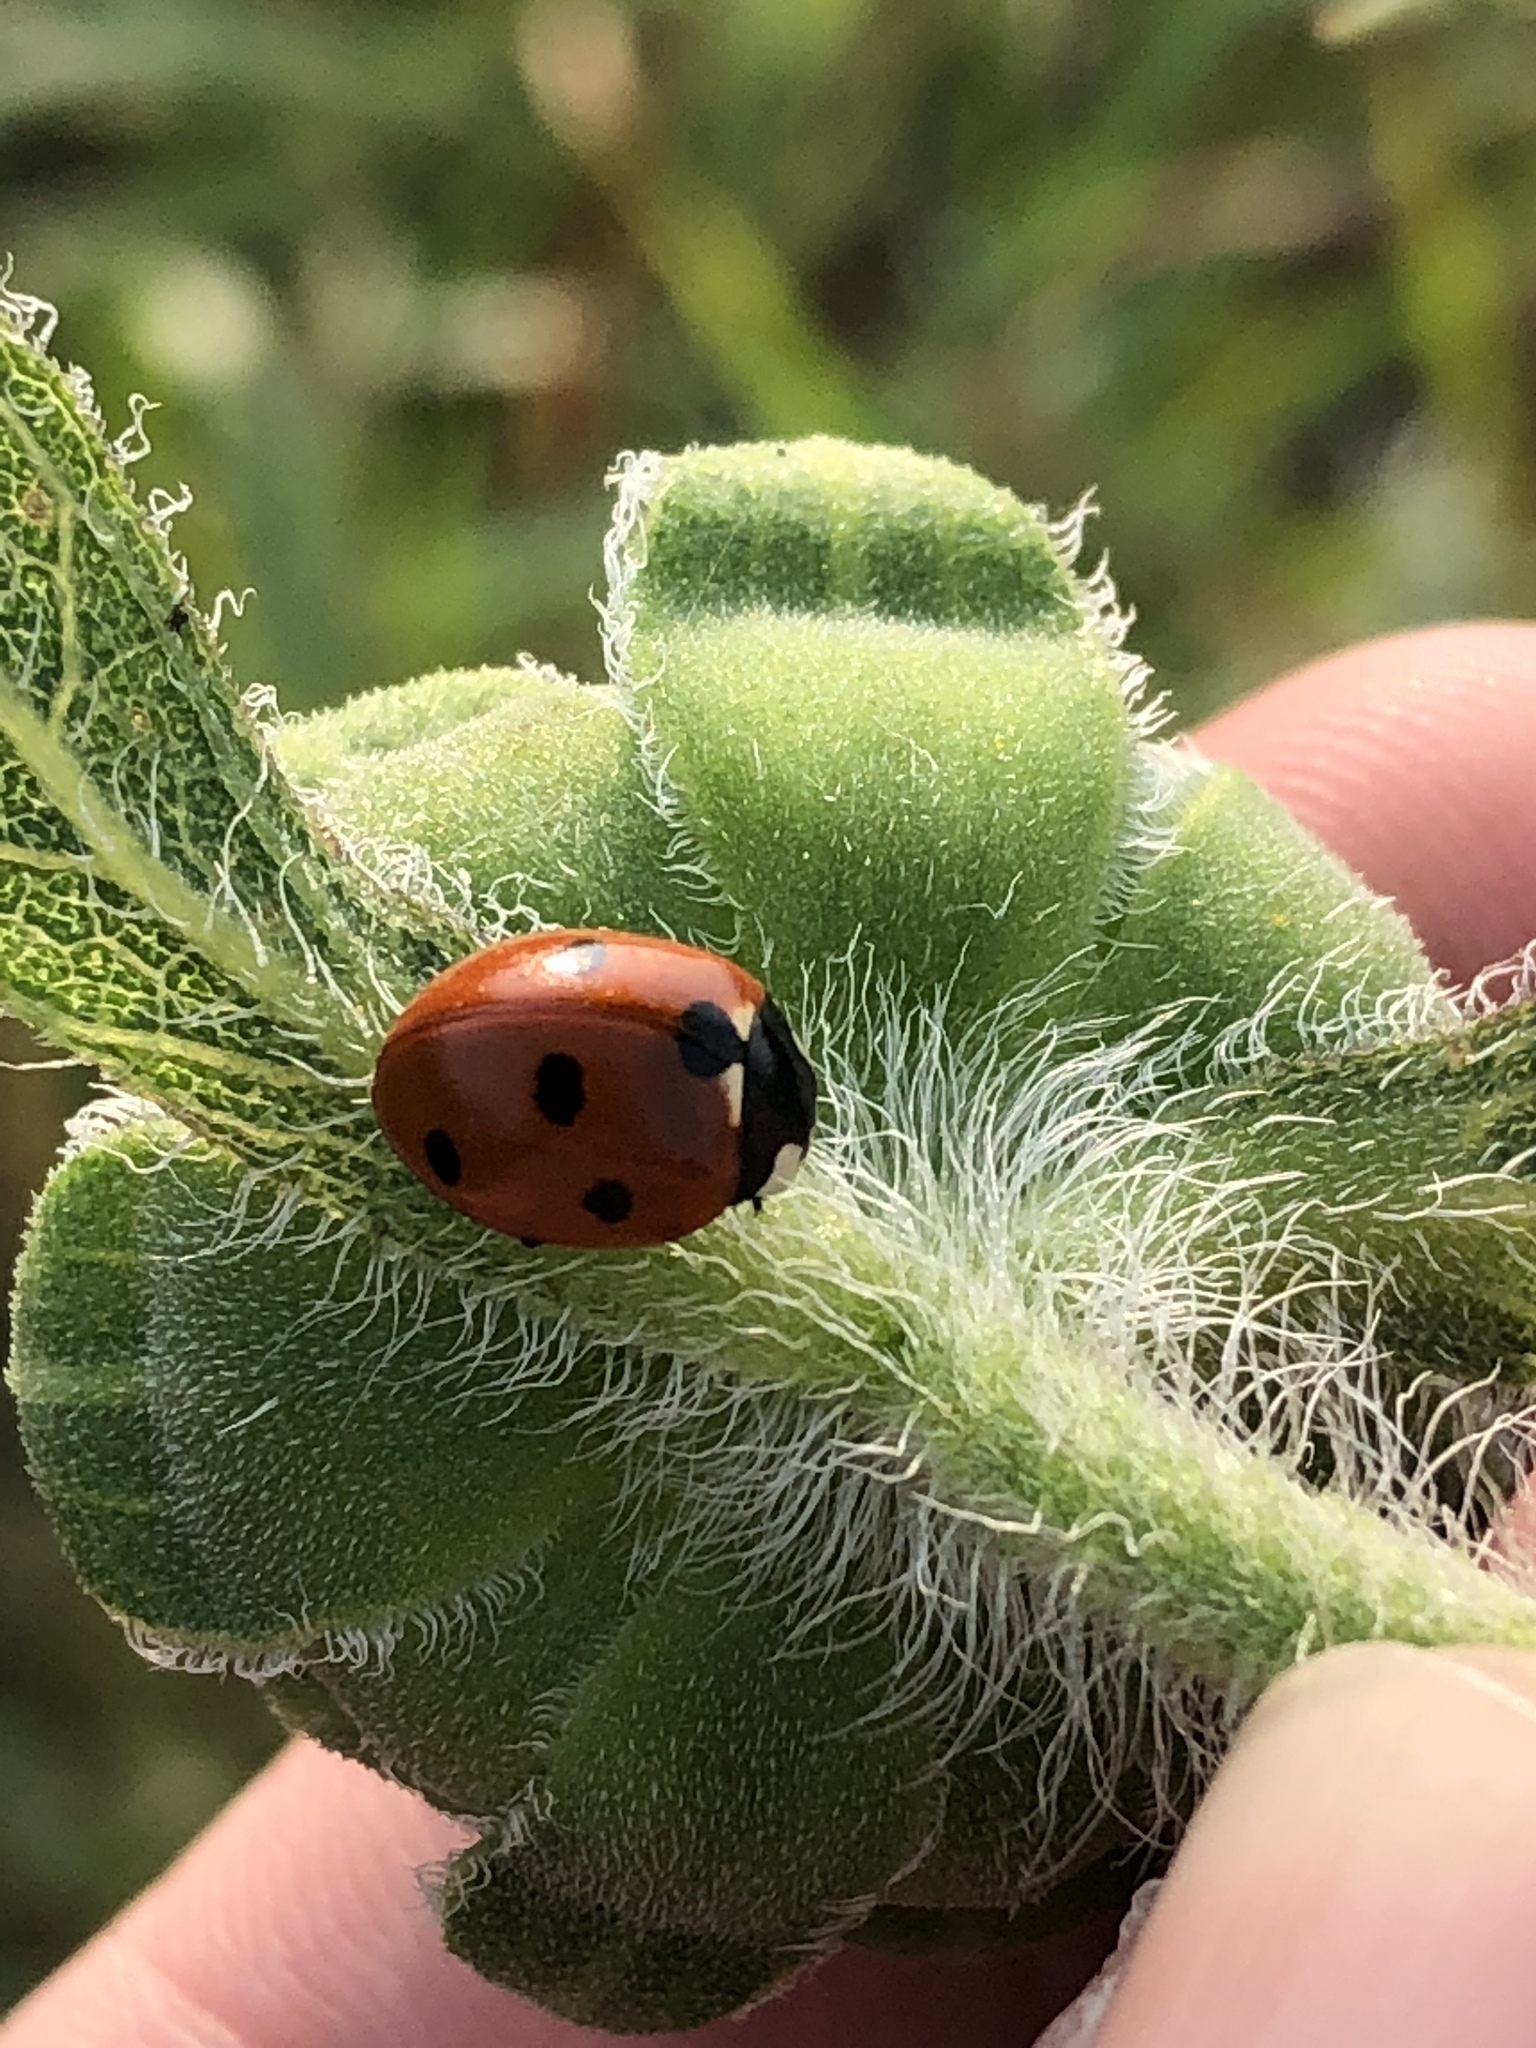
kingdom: Animalia
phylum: Arthropoda
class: Insecta
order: Coleoptera
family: Coccinellidae
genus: Coccinella
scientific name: Coccinella septempunctata
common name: Sevenspotted lady beetle
